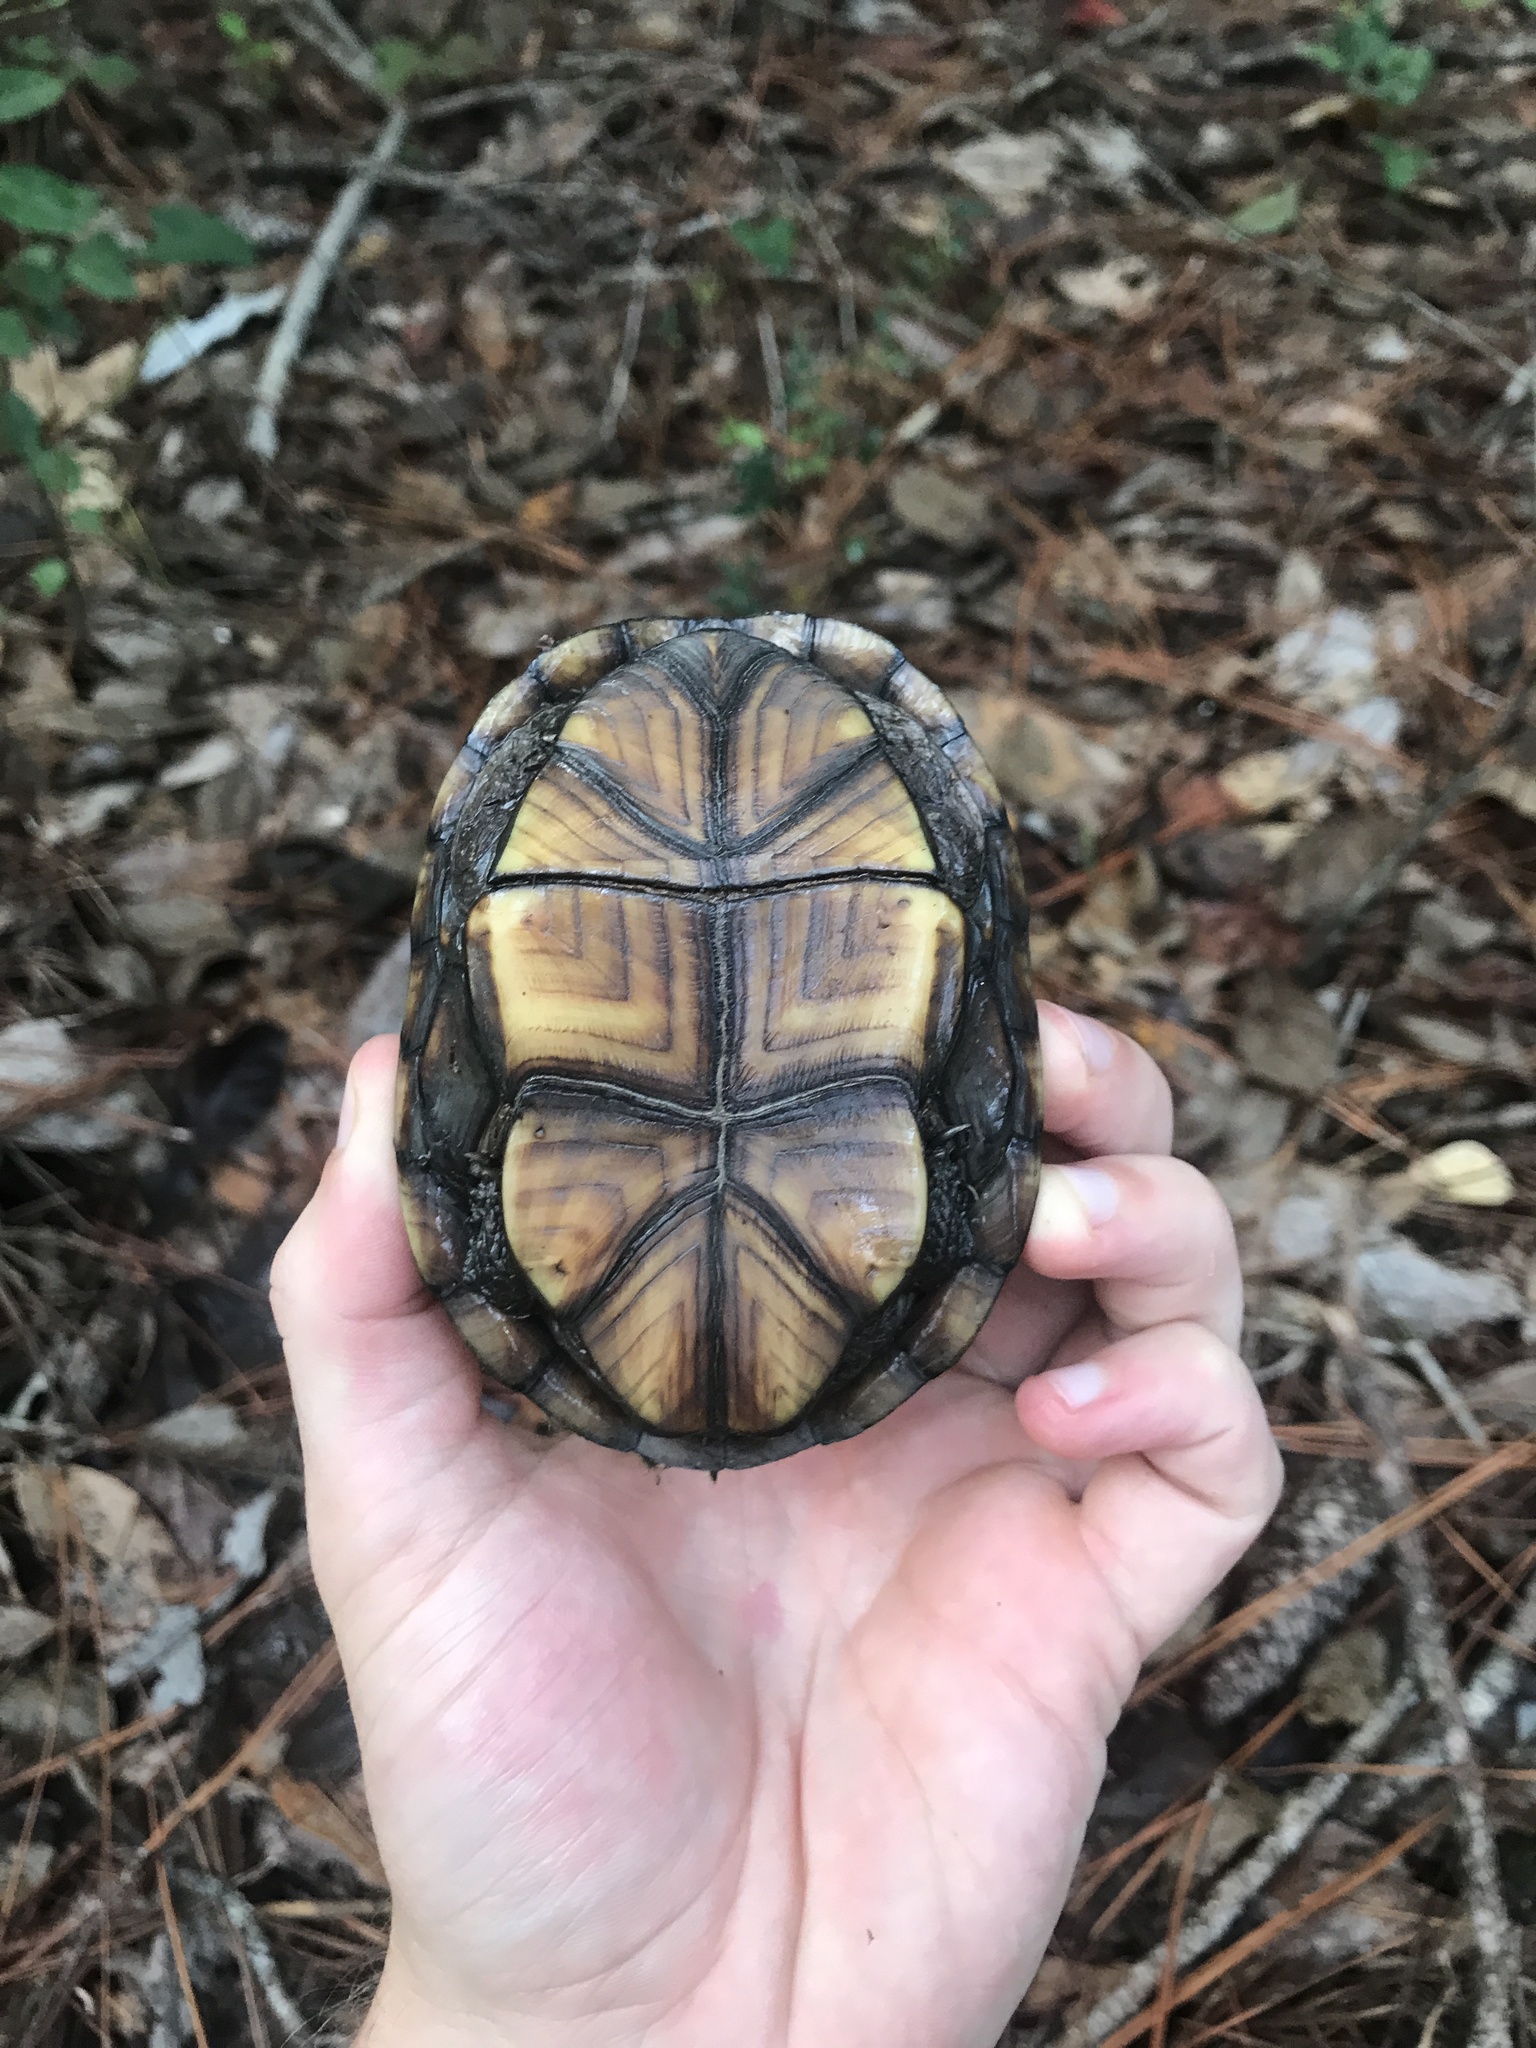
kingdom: Animalia
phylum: Chordata
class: Testudines
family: Kinosternidae
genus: Kinosternon
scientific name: Kinosternon subrubrum
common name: Eastern mud turtle
